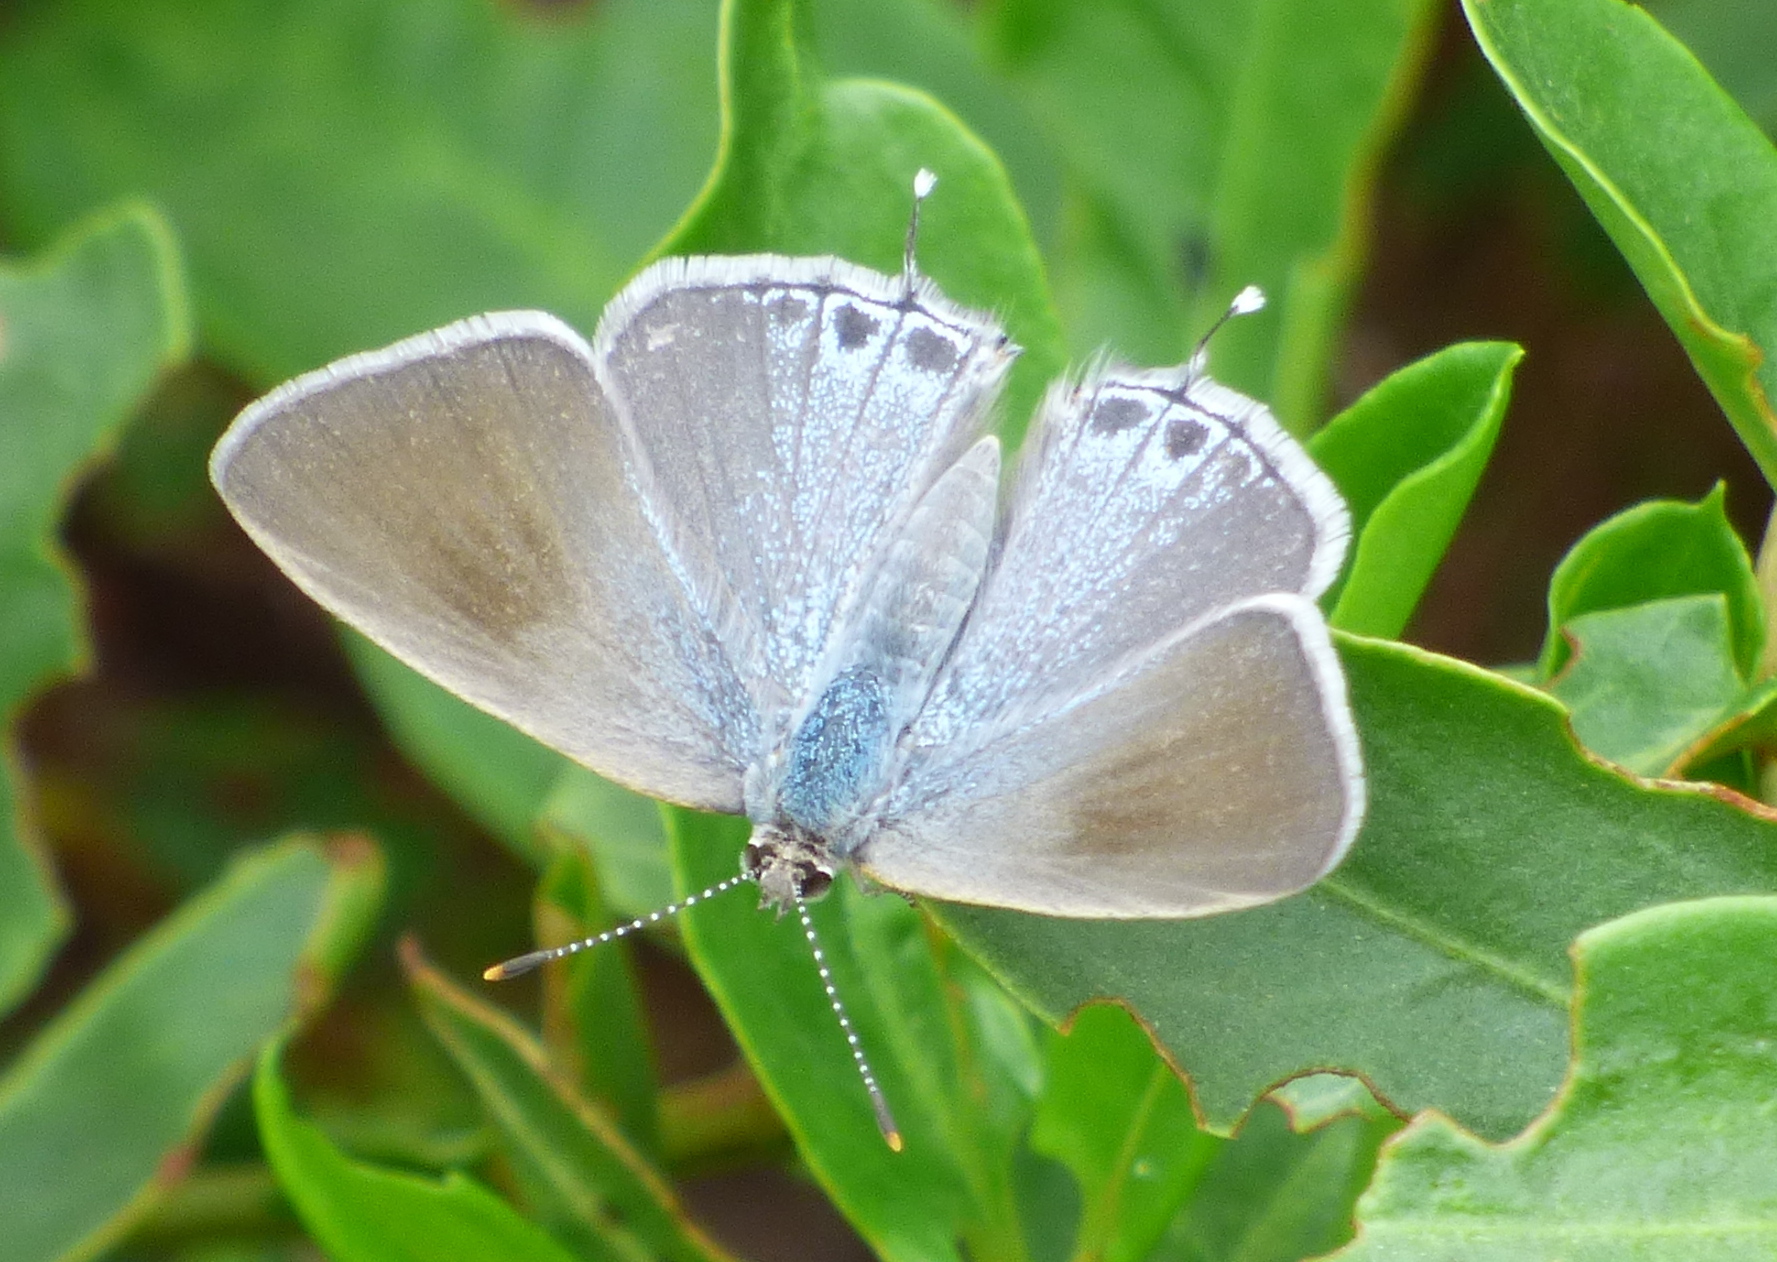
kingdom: Animalia
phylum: Arthropoda
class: Insecta
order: Lepidoptera
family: Lycaenidae
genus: Strymon
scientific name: Strymon eurytulus
